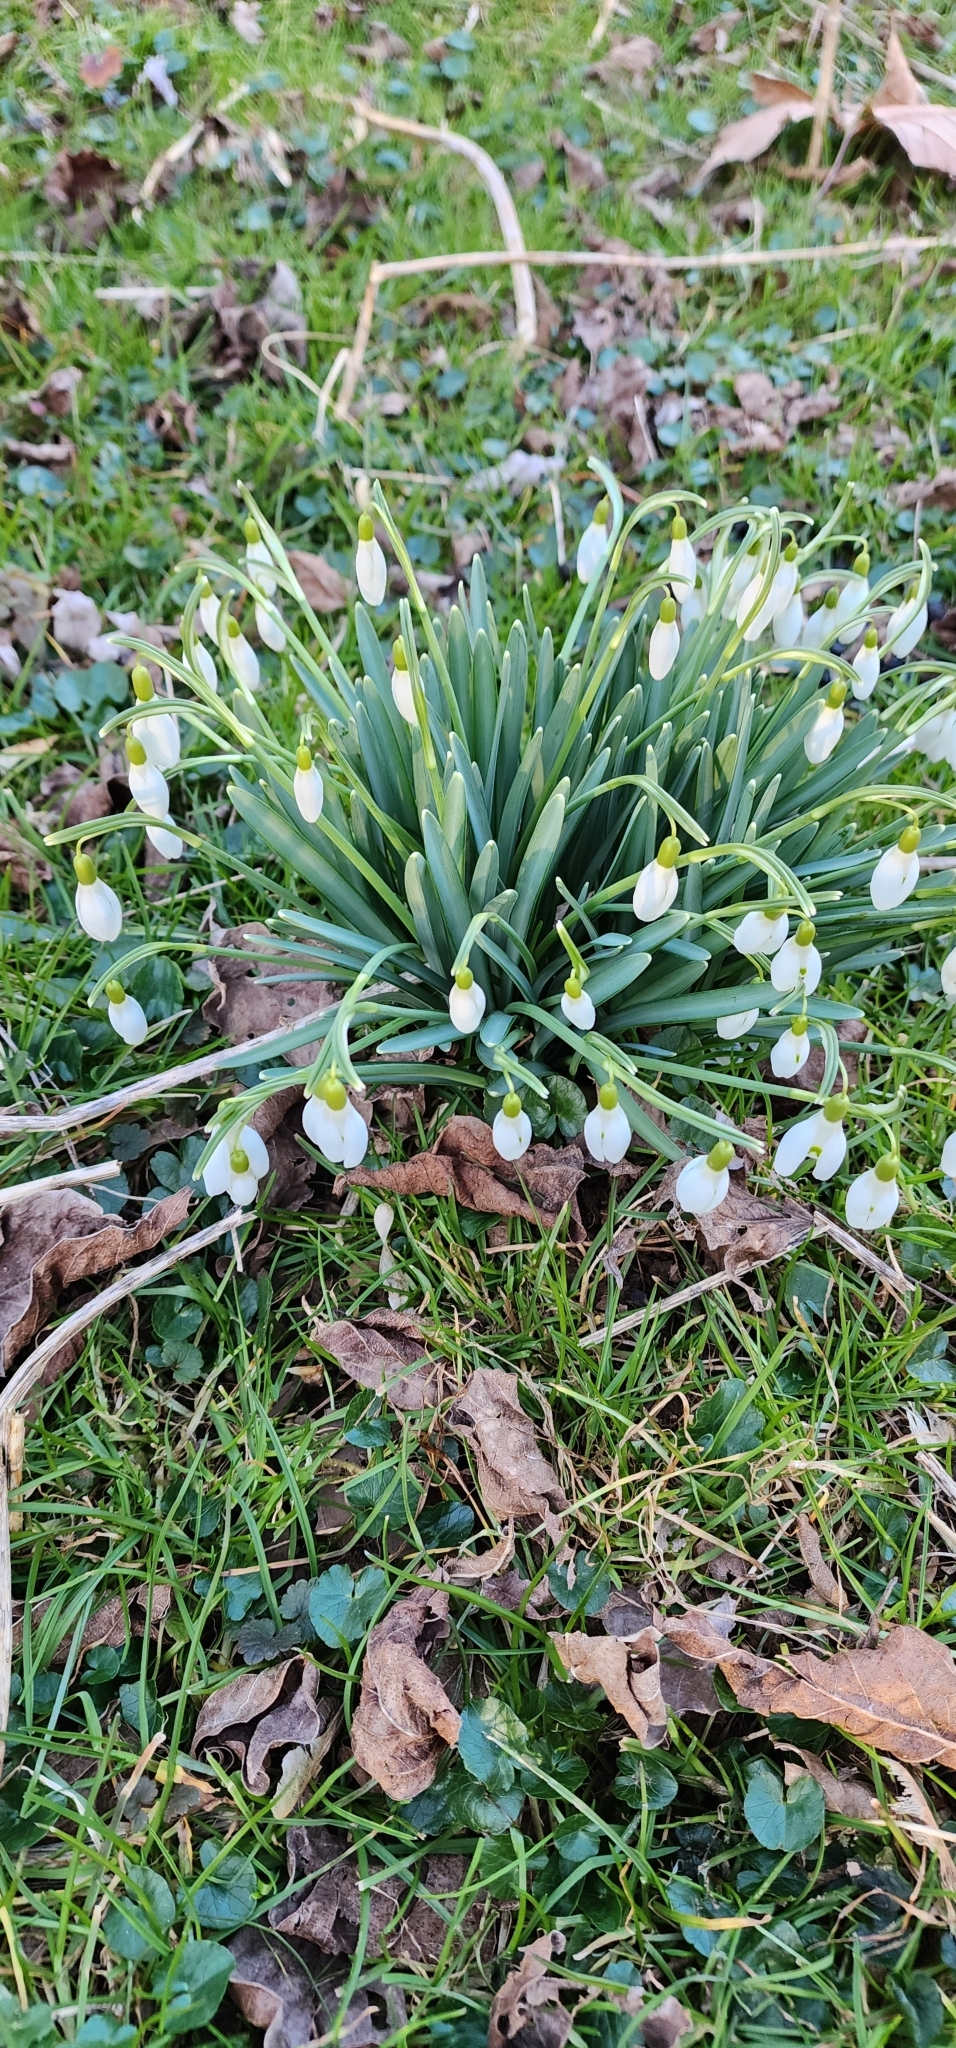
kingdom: Plantae
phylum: Tracheophyta
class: Liliopsida
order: Asparagales
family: Amaryllidaceae
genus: Galanthus
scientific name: Galanthus nivalis
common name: Snowdrop
